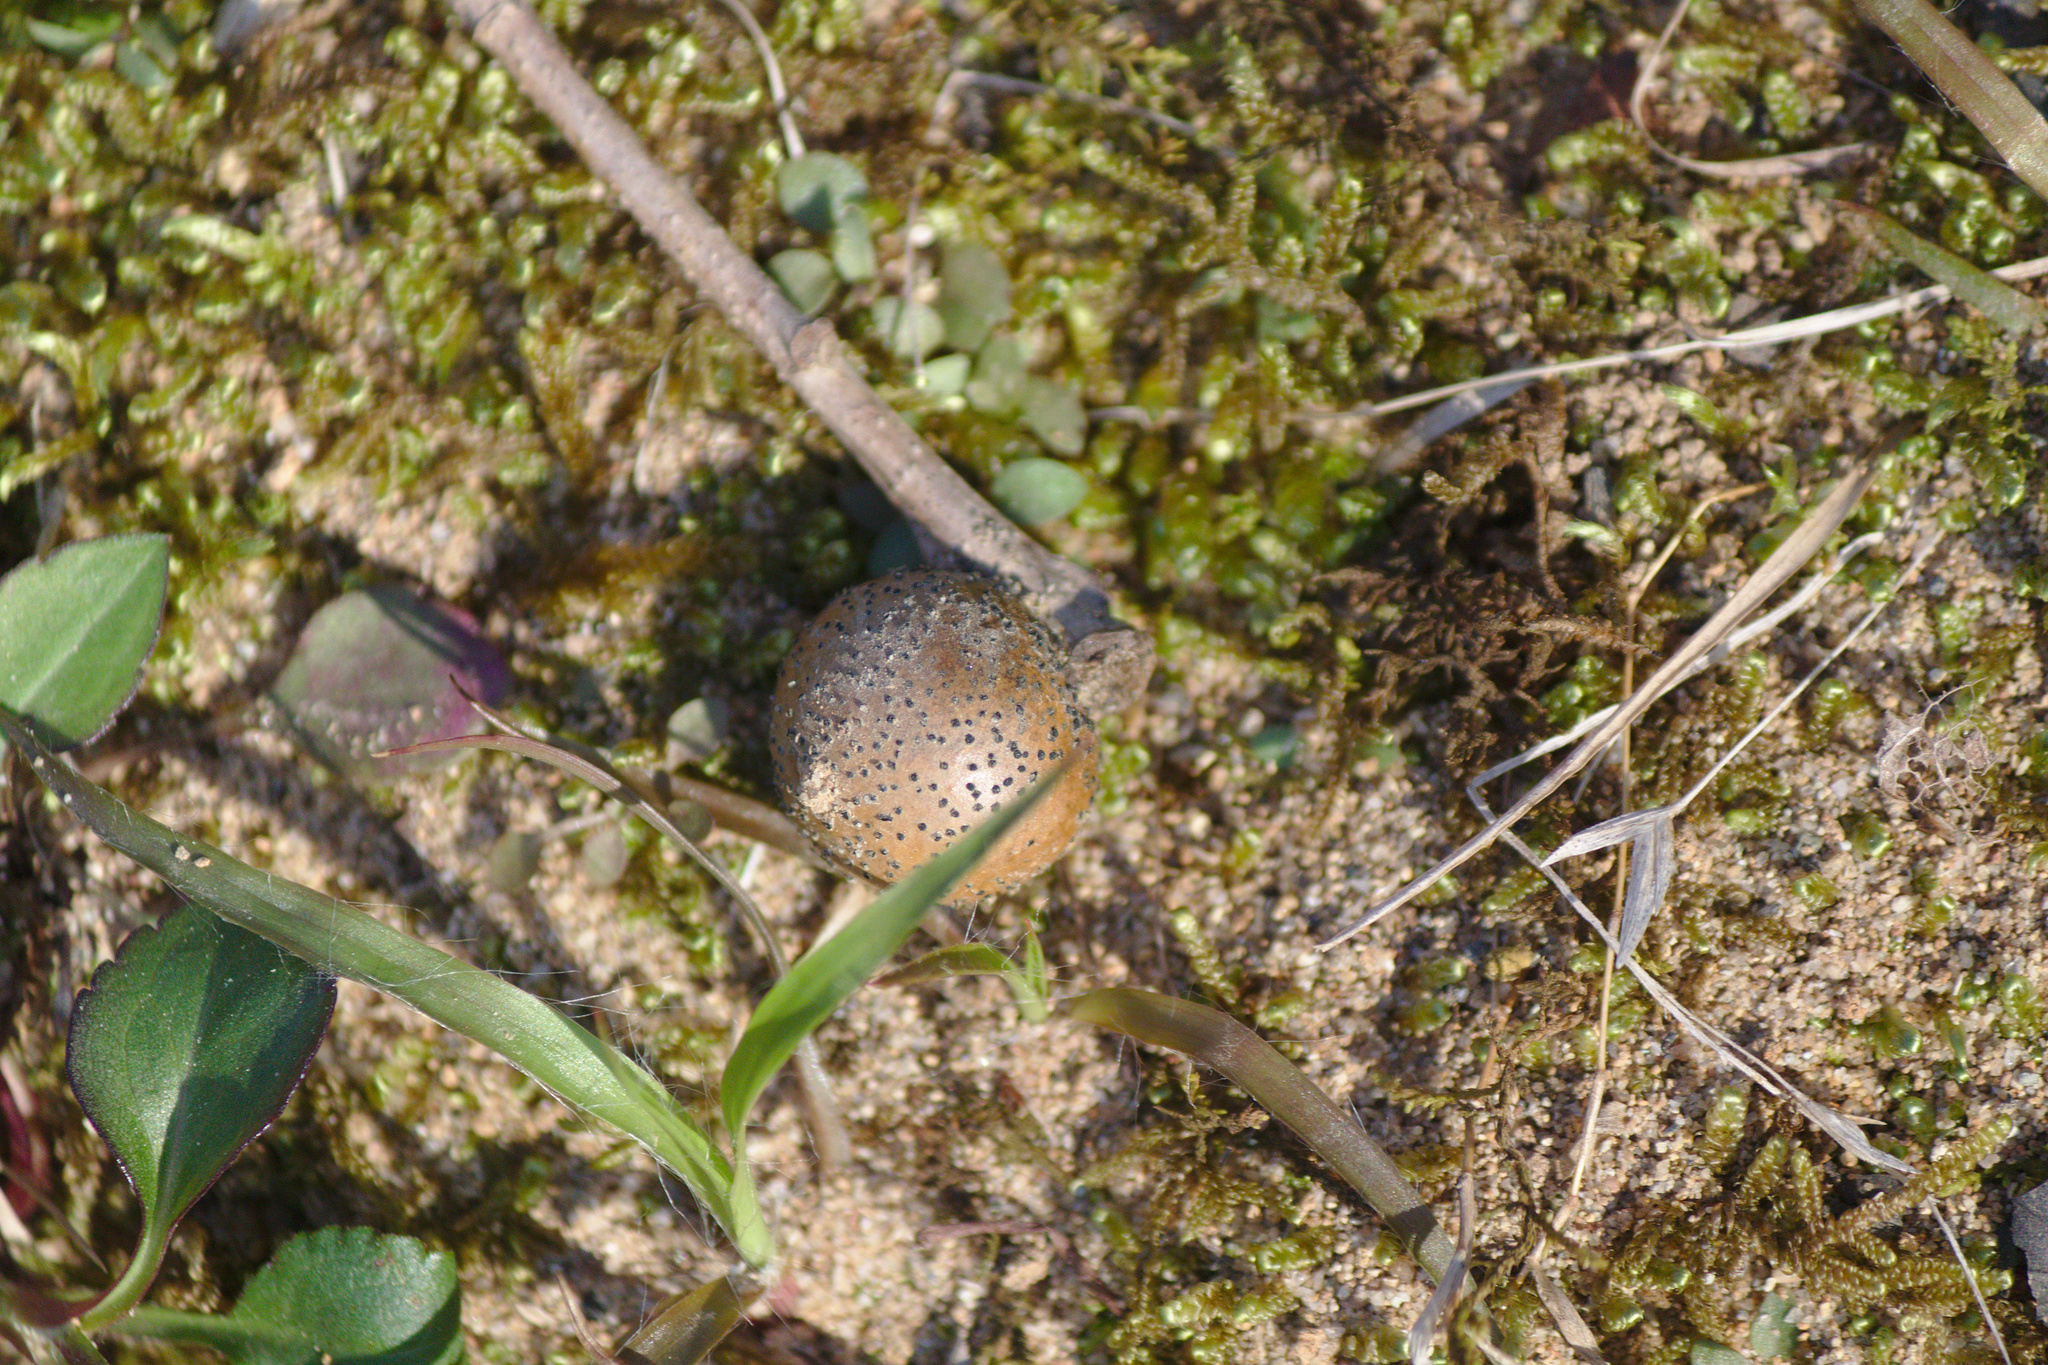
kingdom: Animalia
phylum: Arthropoda
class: Insecta
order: Hymenoptera
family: Cynipidae
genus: Disholcaspis
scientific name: Disholcaspis quercusglobulus
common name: Round bullet gall wasp
